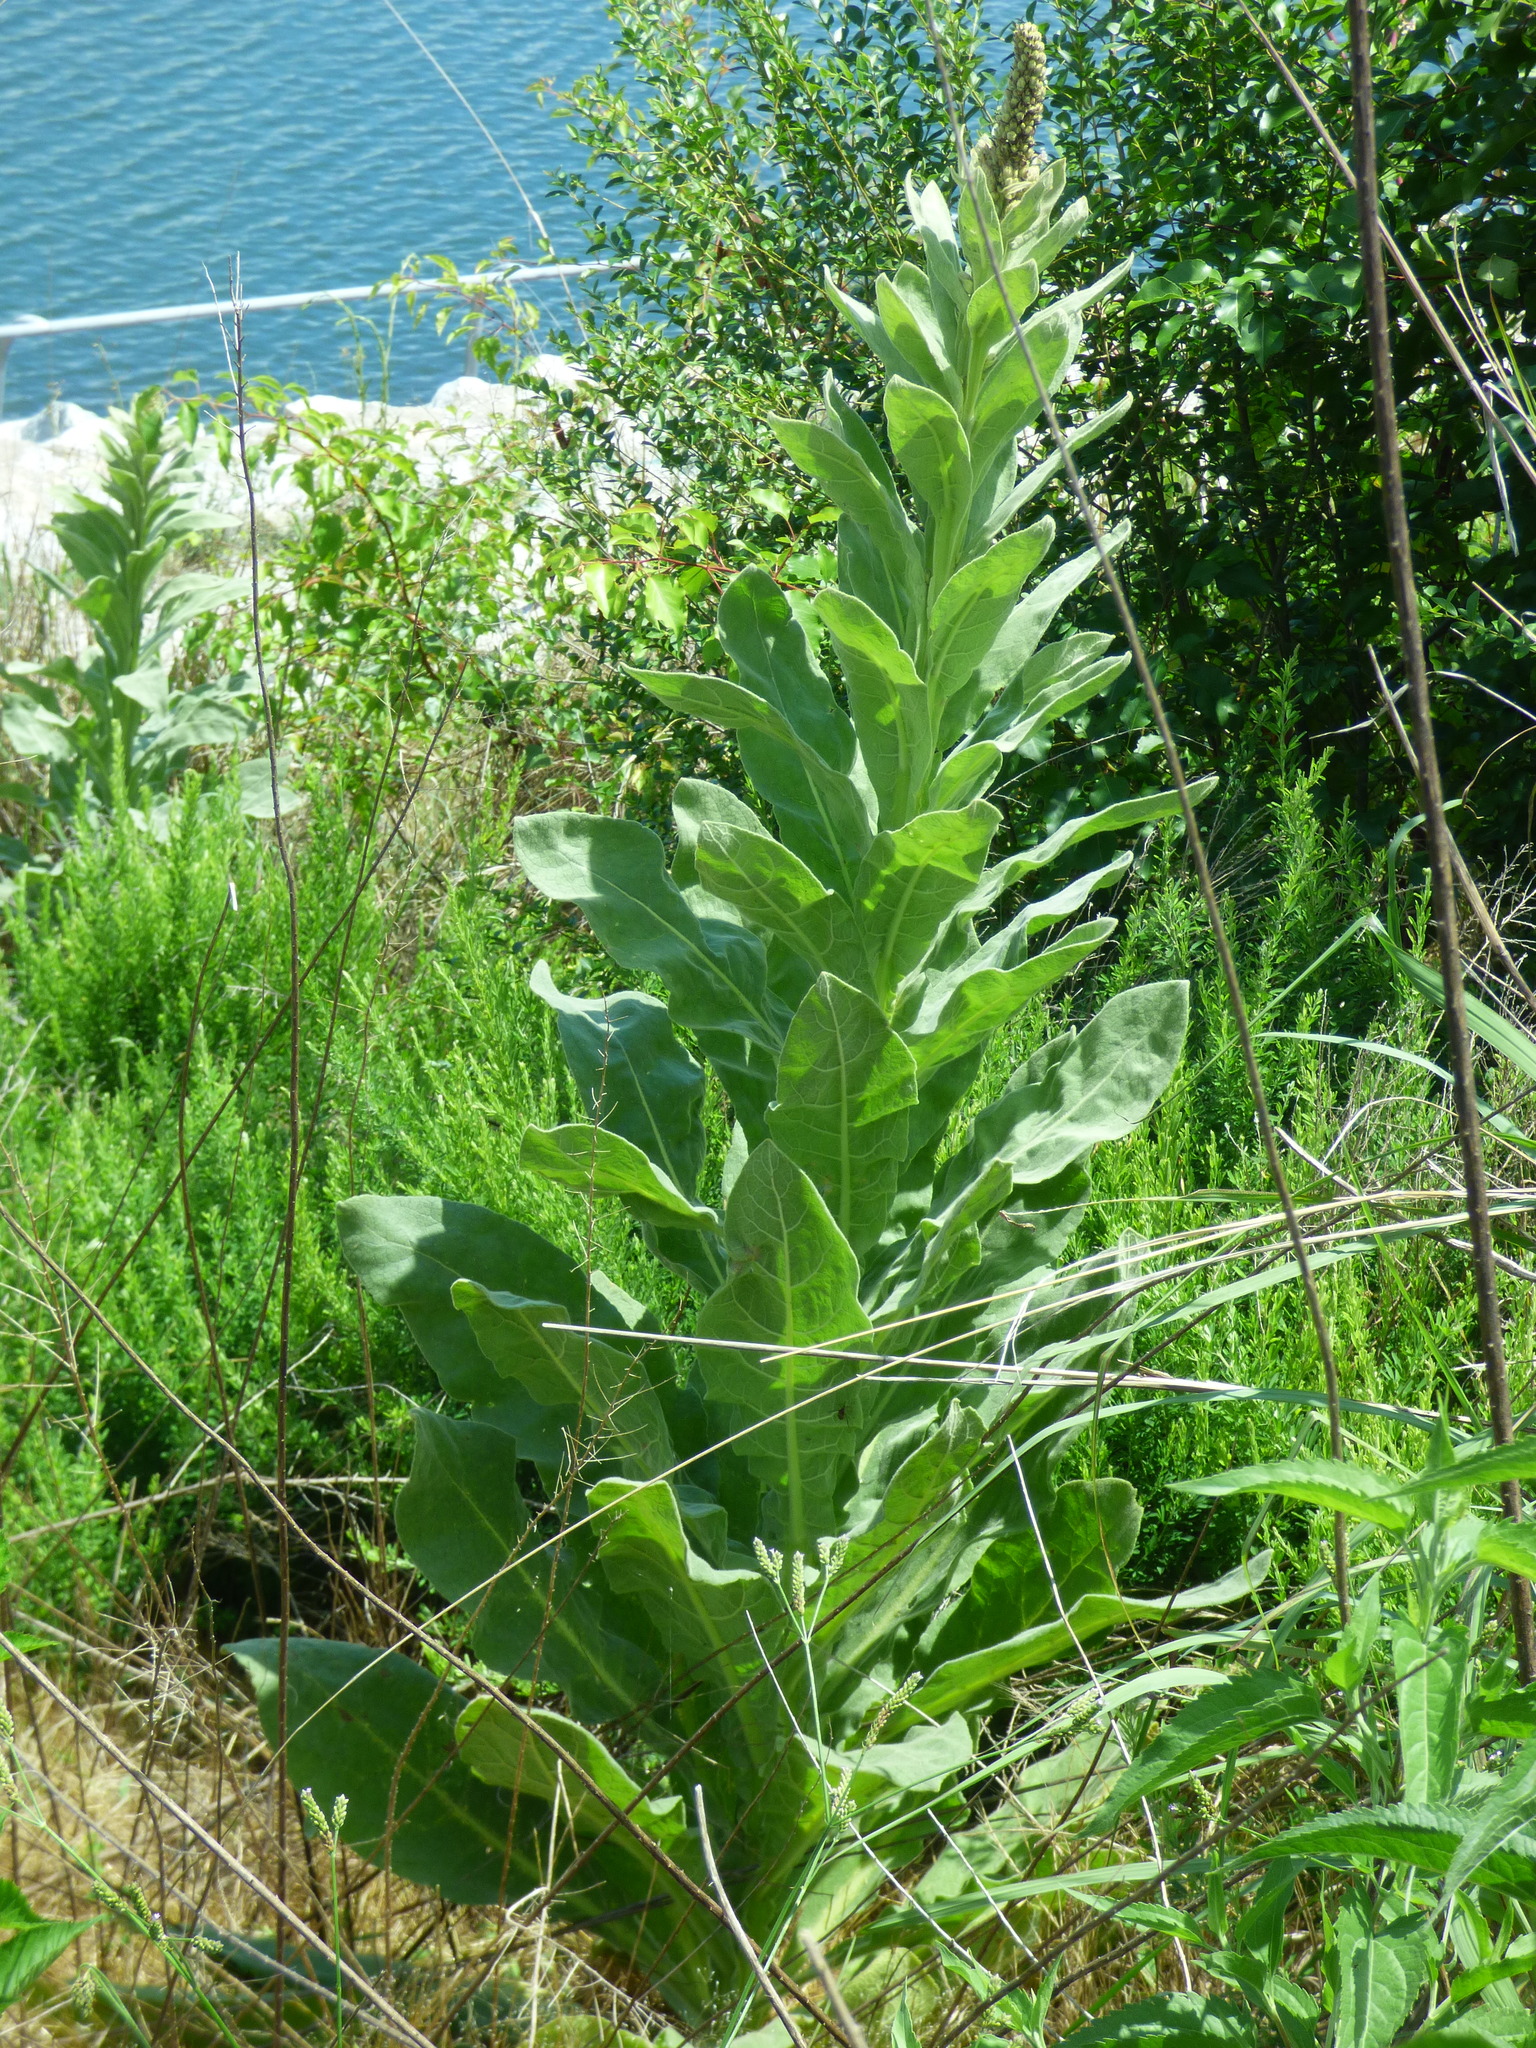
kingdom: Plantae
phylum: Tracheophyta
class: Magnoliopsida
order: Lamiales
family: Scrophulariaceae
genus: Verbascum
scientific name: Verbascum thapsus
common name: Common mullein
